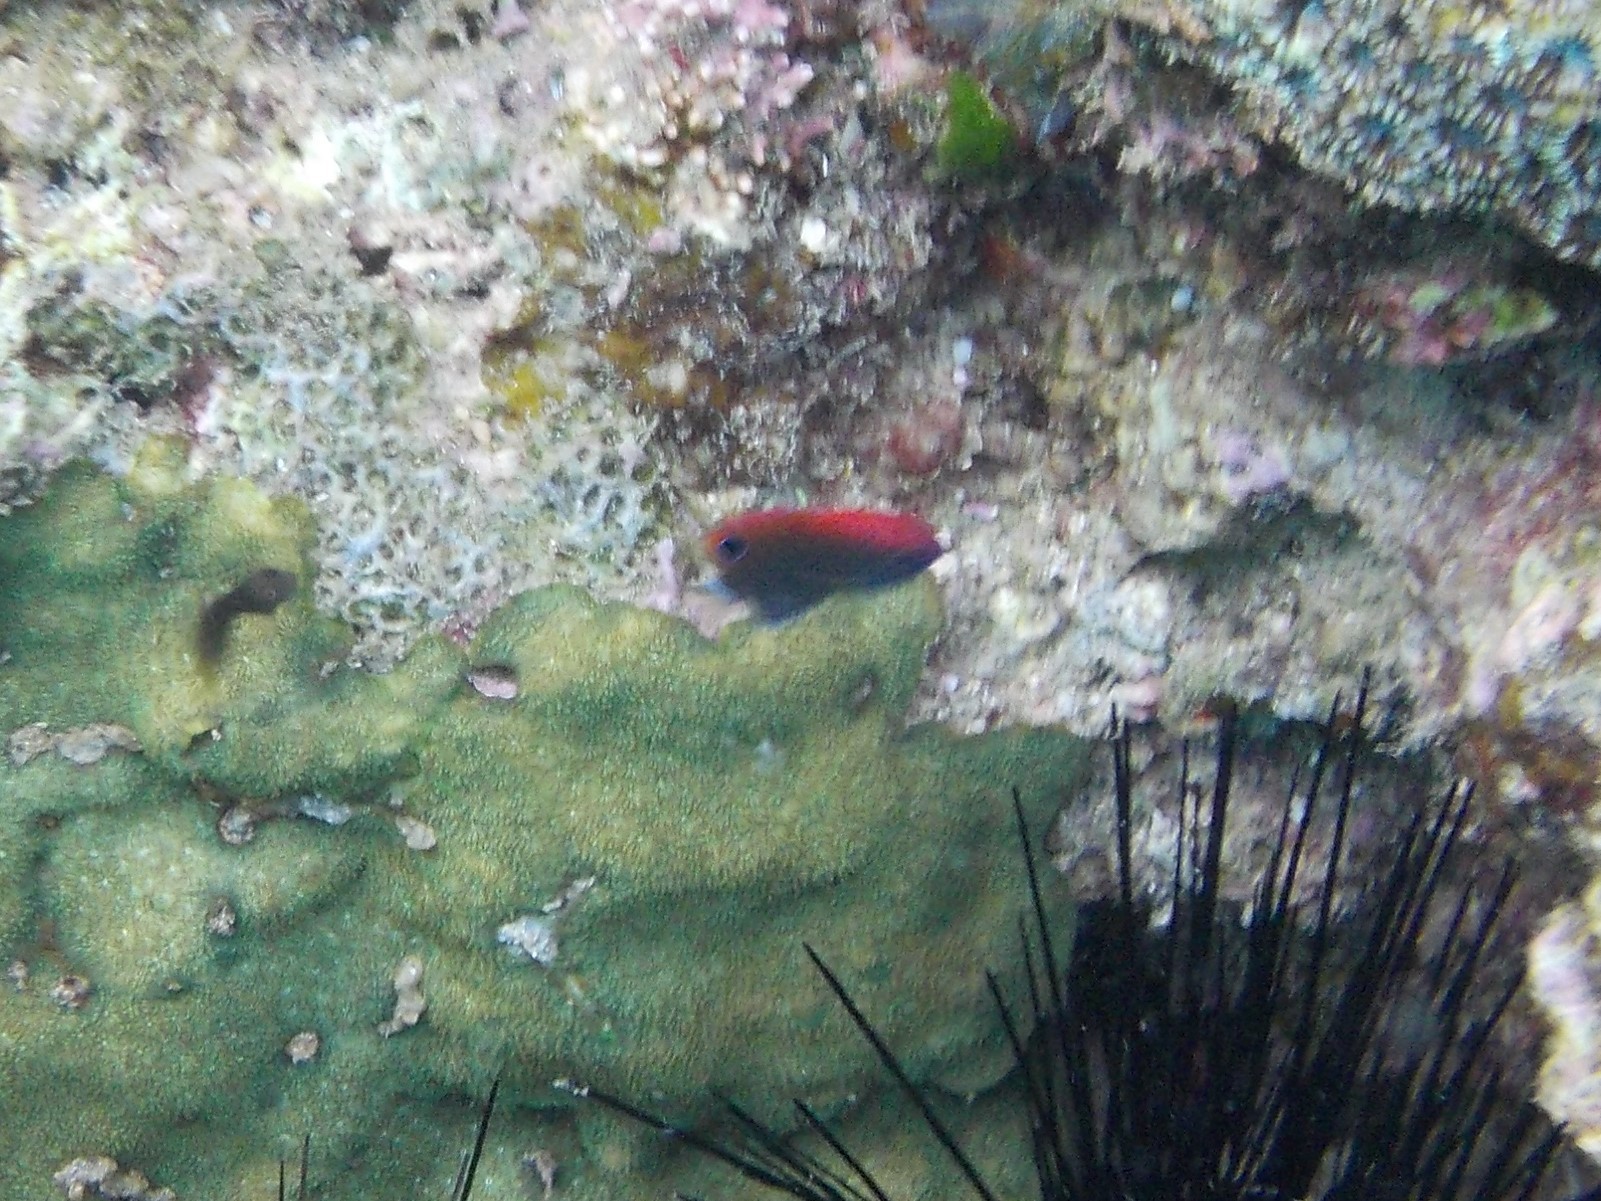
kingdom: Animalia
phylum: Chordata
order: Perciformes
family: Pomacentridae
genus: Pomacentrus
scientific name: Pomacentrus bankanensis
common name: Speckled damsel
